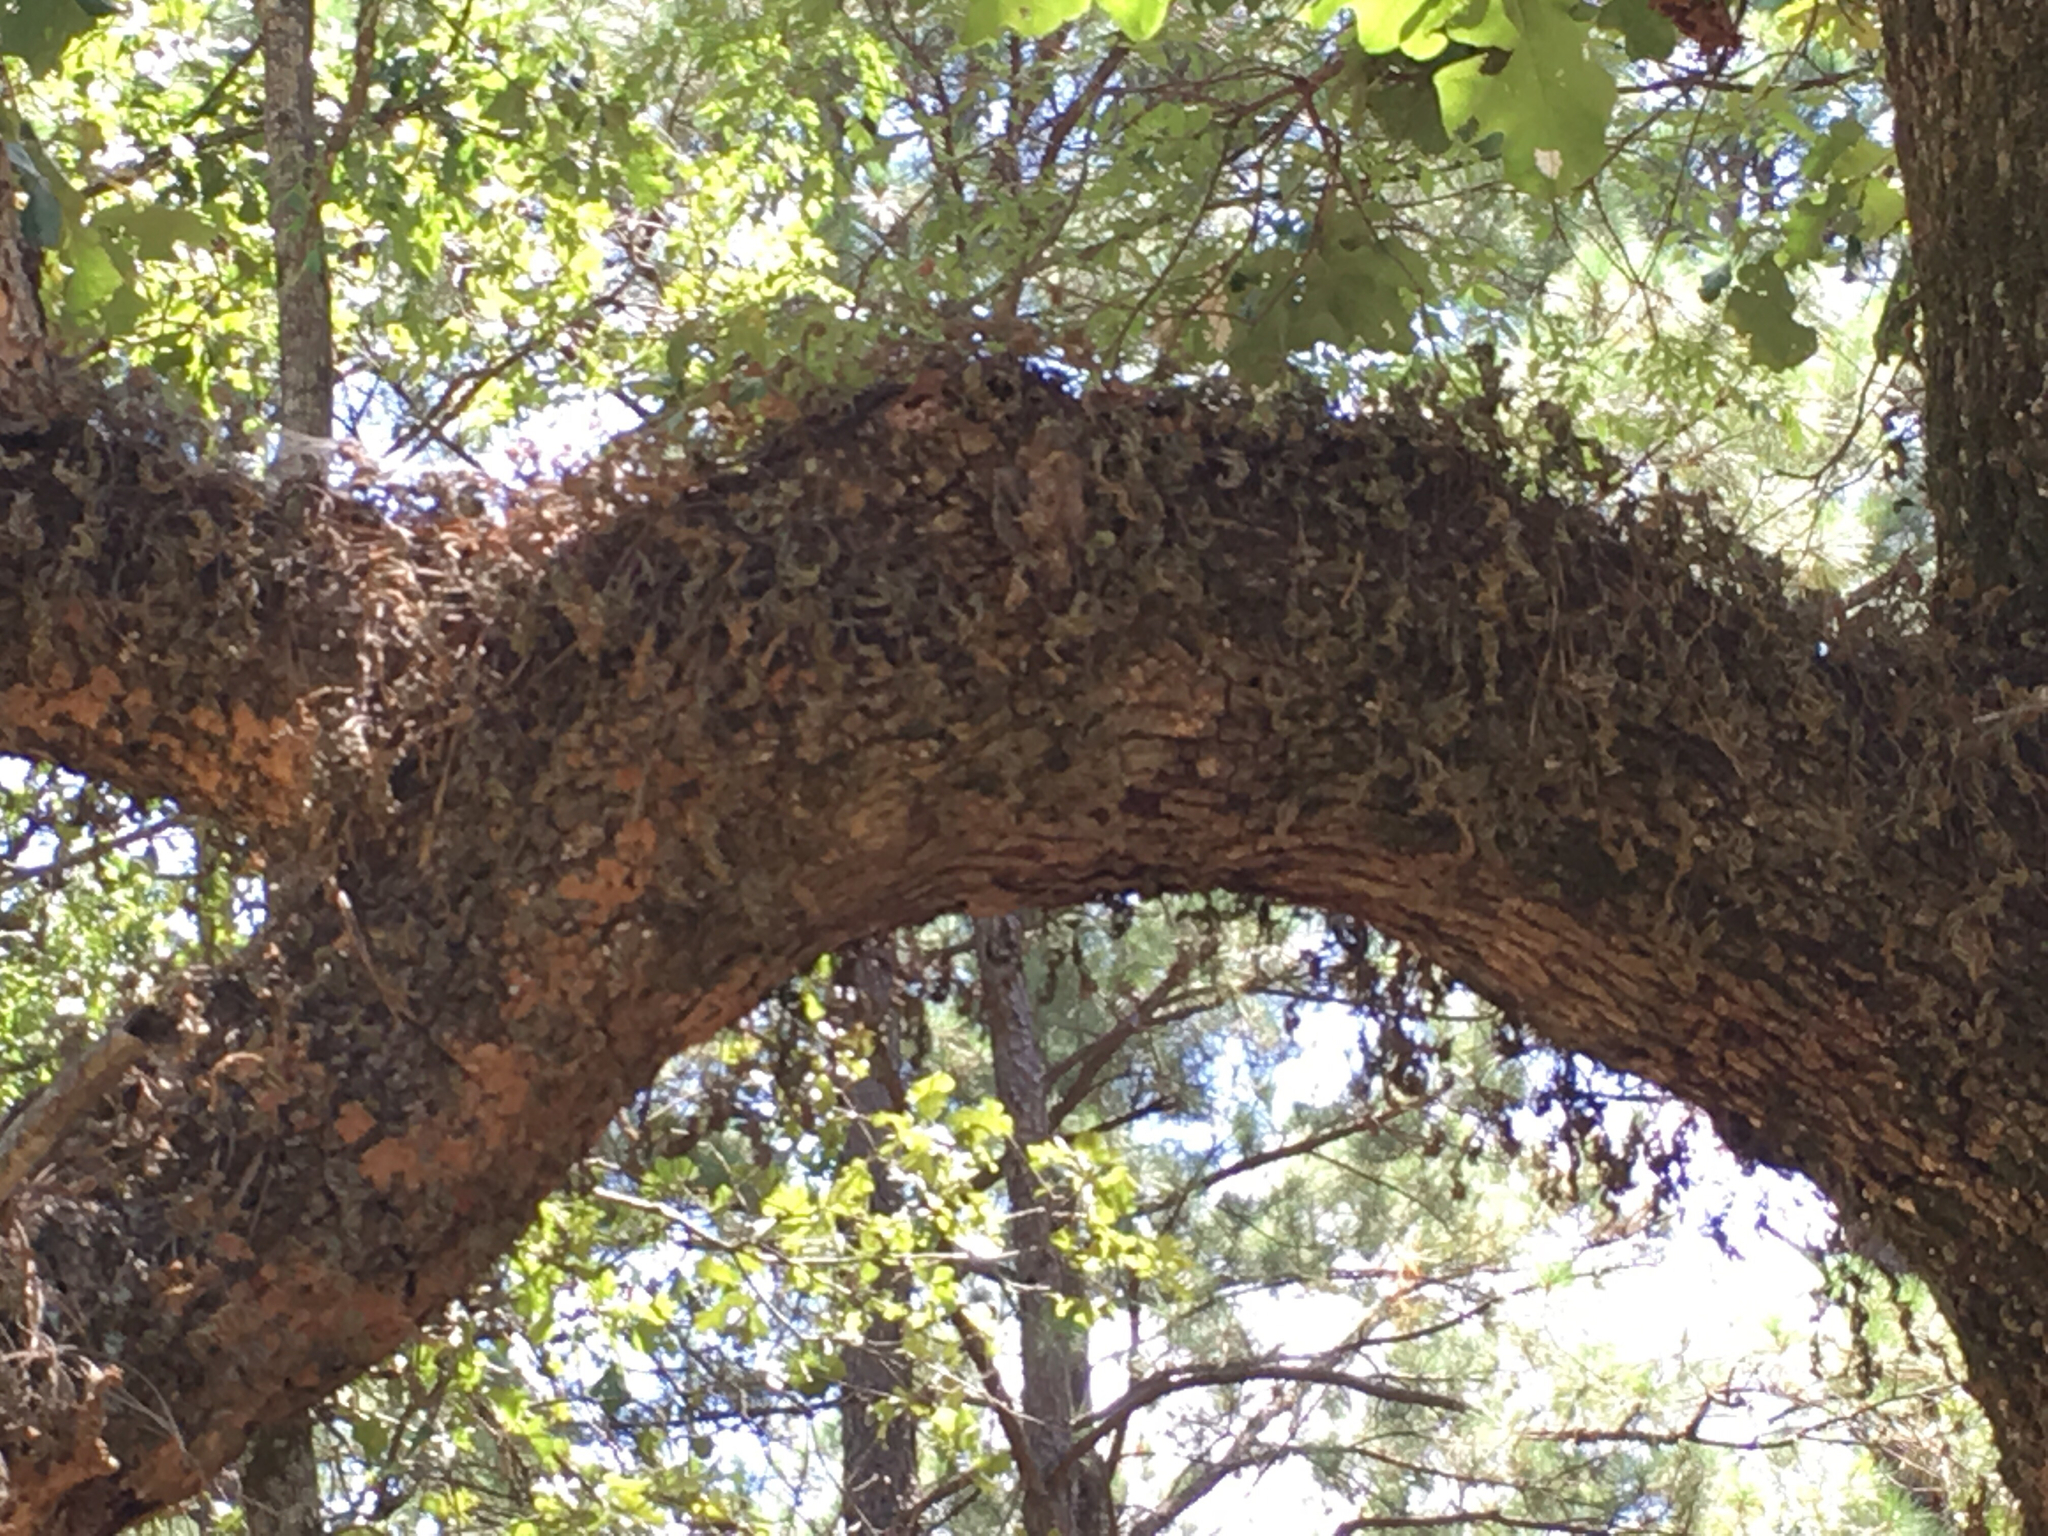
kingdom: Plantae
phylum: Tracheophyta
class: Polypodiopsida
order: Polypodiales
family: Polypodiaceae
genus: Pleopeltis
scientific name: Pleopeltis michauxiana
